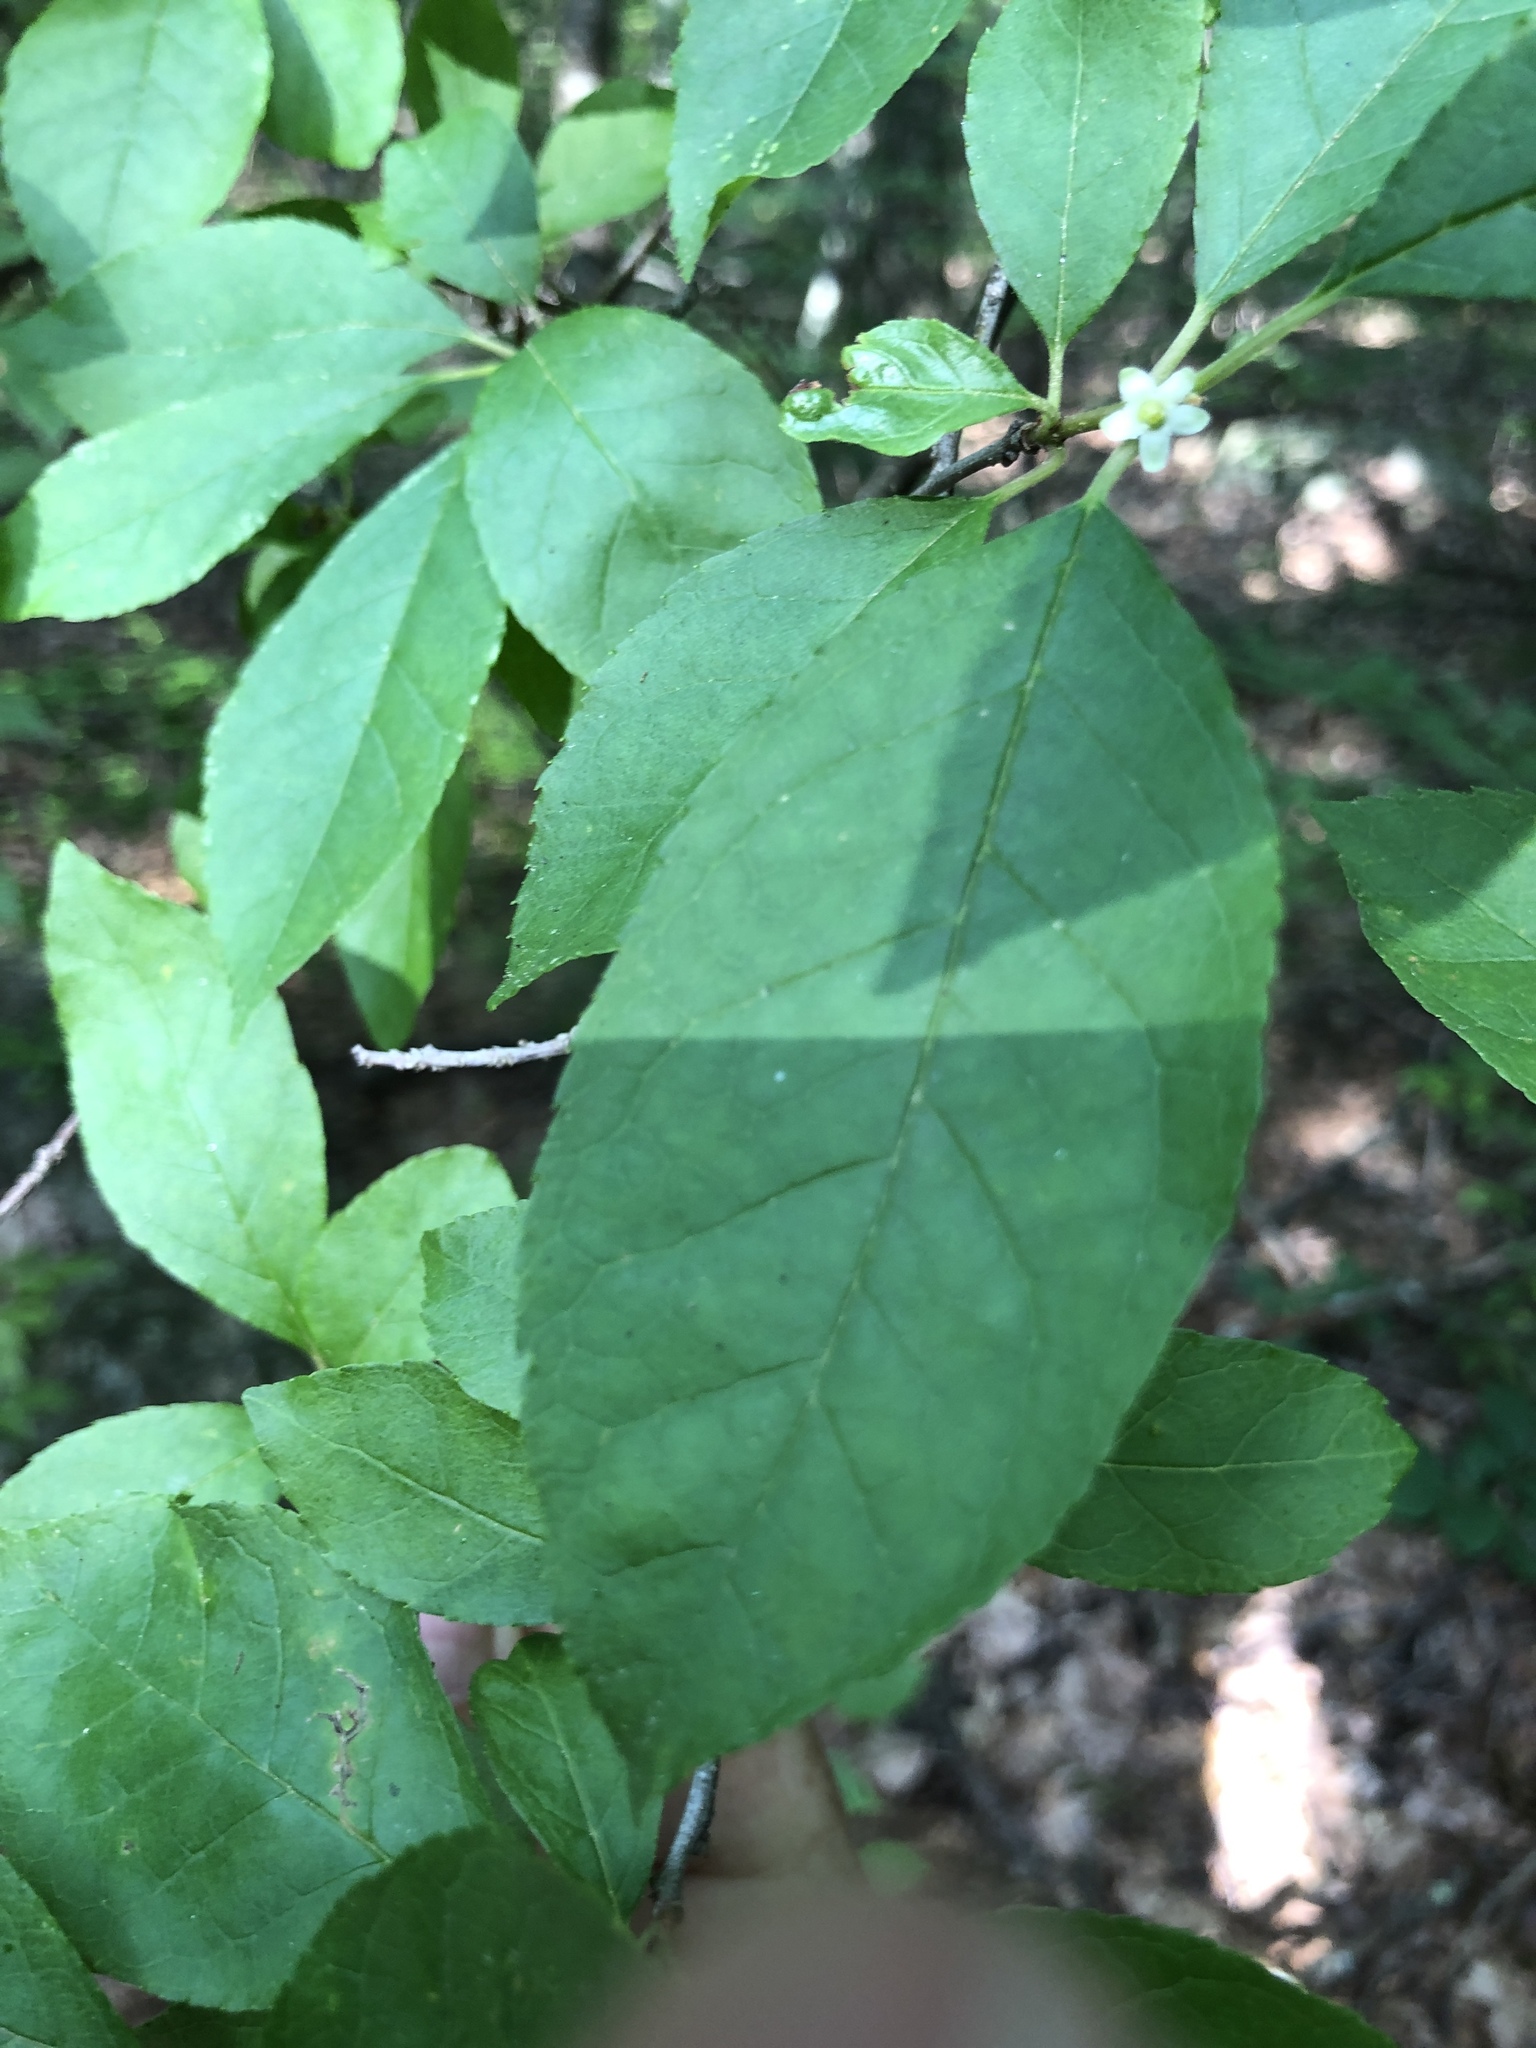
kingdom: Plantae
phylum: Tracheophyta
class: Magnoliopsida
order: Aquifoliales
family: Aquifoliaceae
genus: Ilex
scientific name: Ilex verticillata
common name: Virginia winterberry
